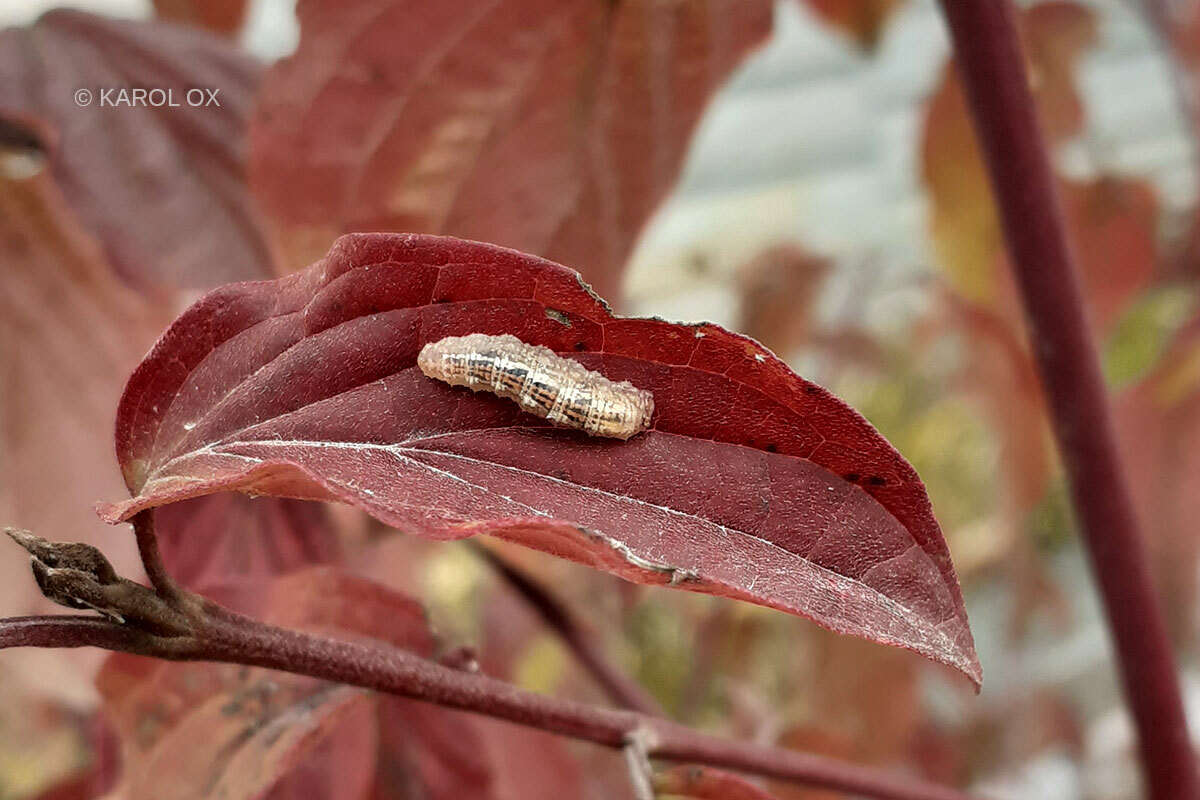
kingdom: Animalia
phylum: Arthropoda
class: Insecta
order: Diptera
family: Syrphidae
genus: Syrphus
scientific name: Syrphus
